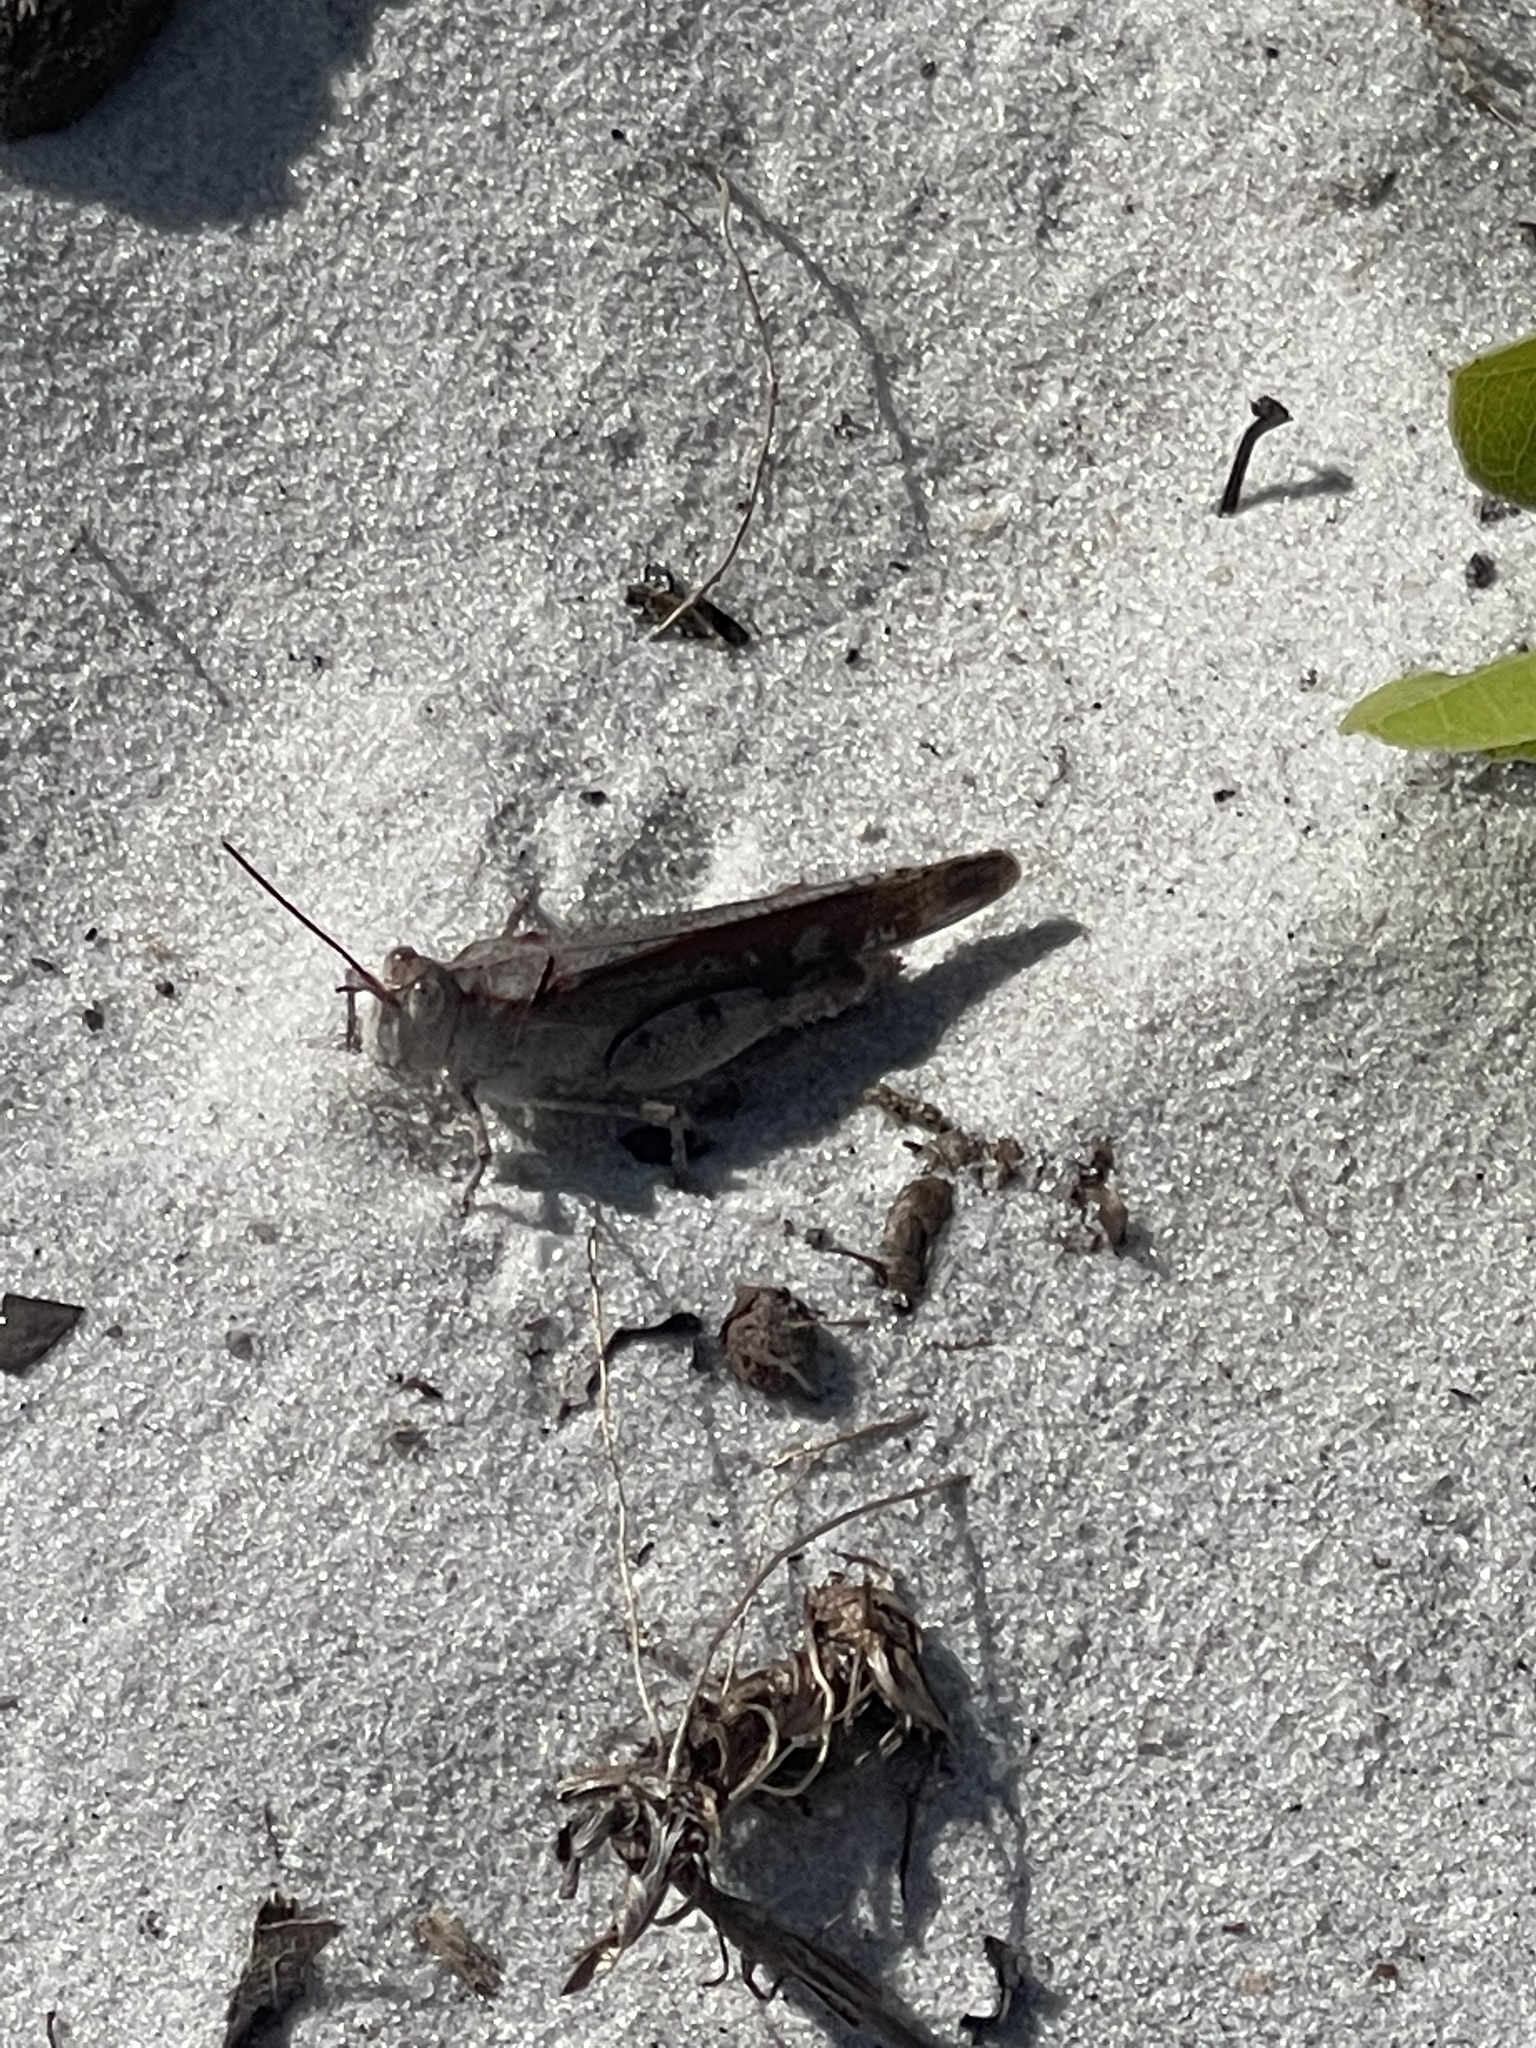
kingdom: Animalia
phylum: Arthropoda
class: Insecta
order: Orthoptera
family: Acrididae
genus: Spharagemon
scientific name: Spharagemon marmoratum
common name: Marbled grasshopper
